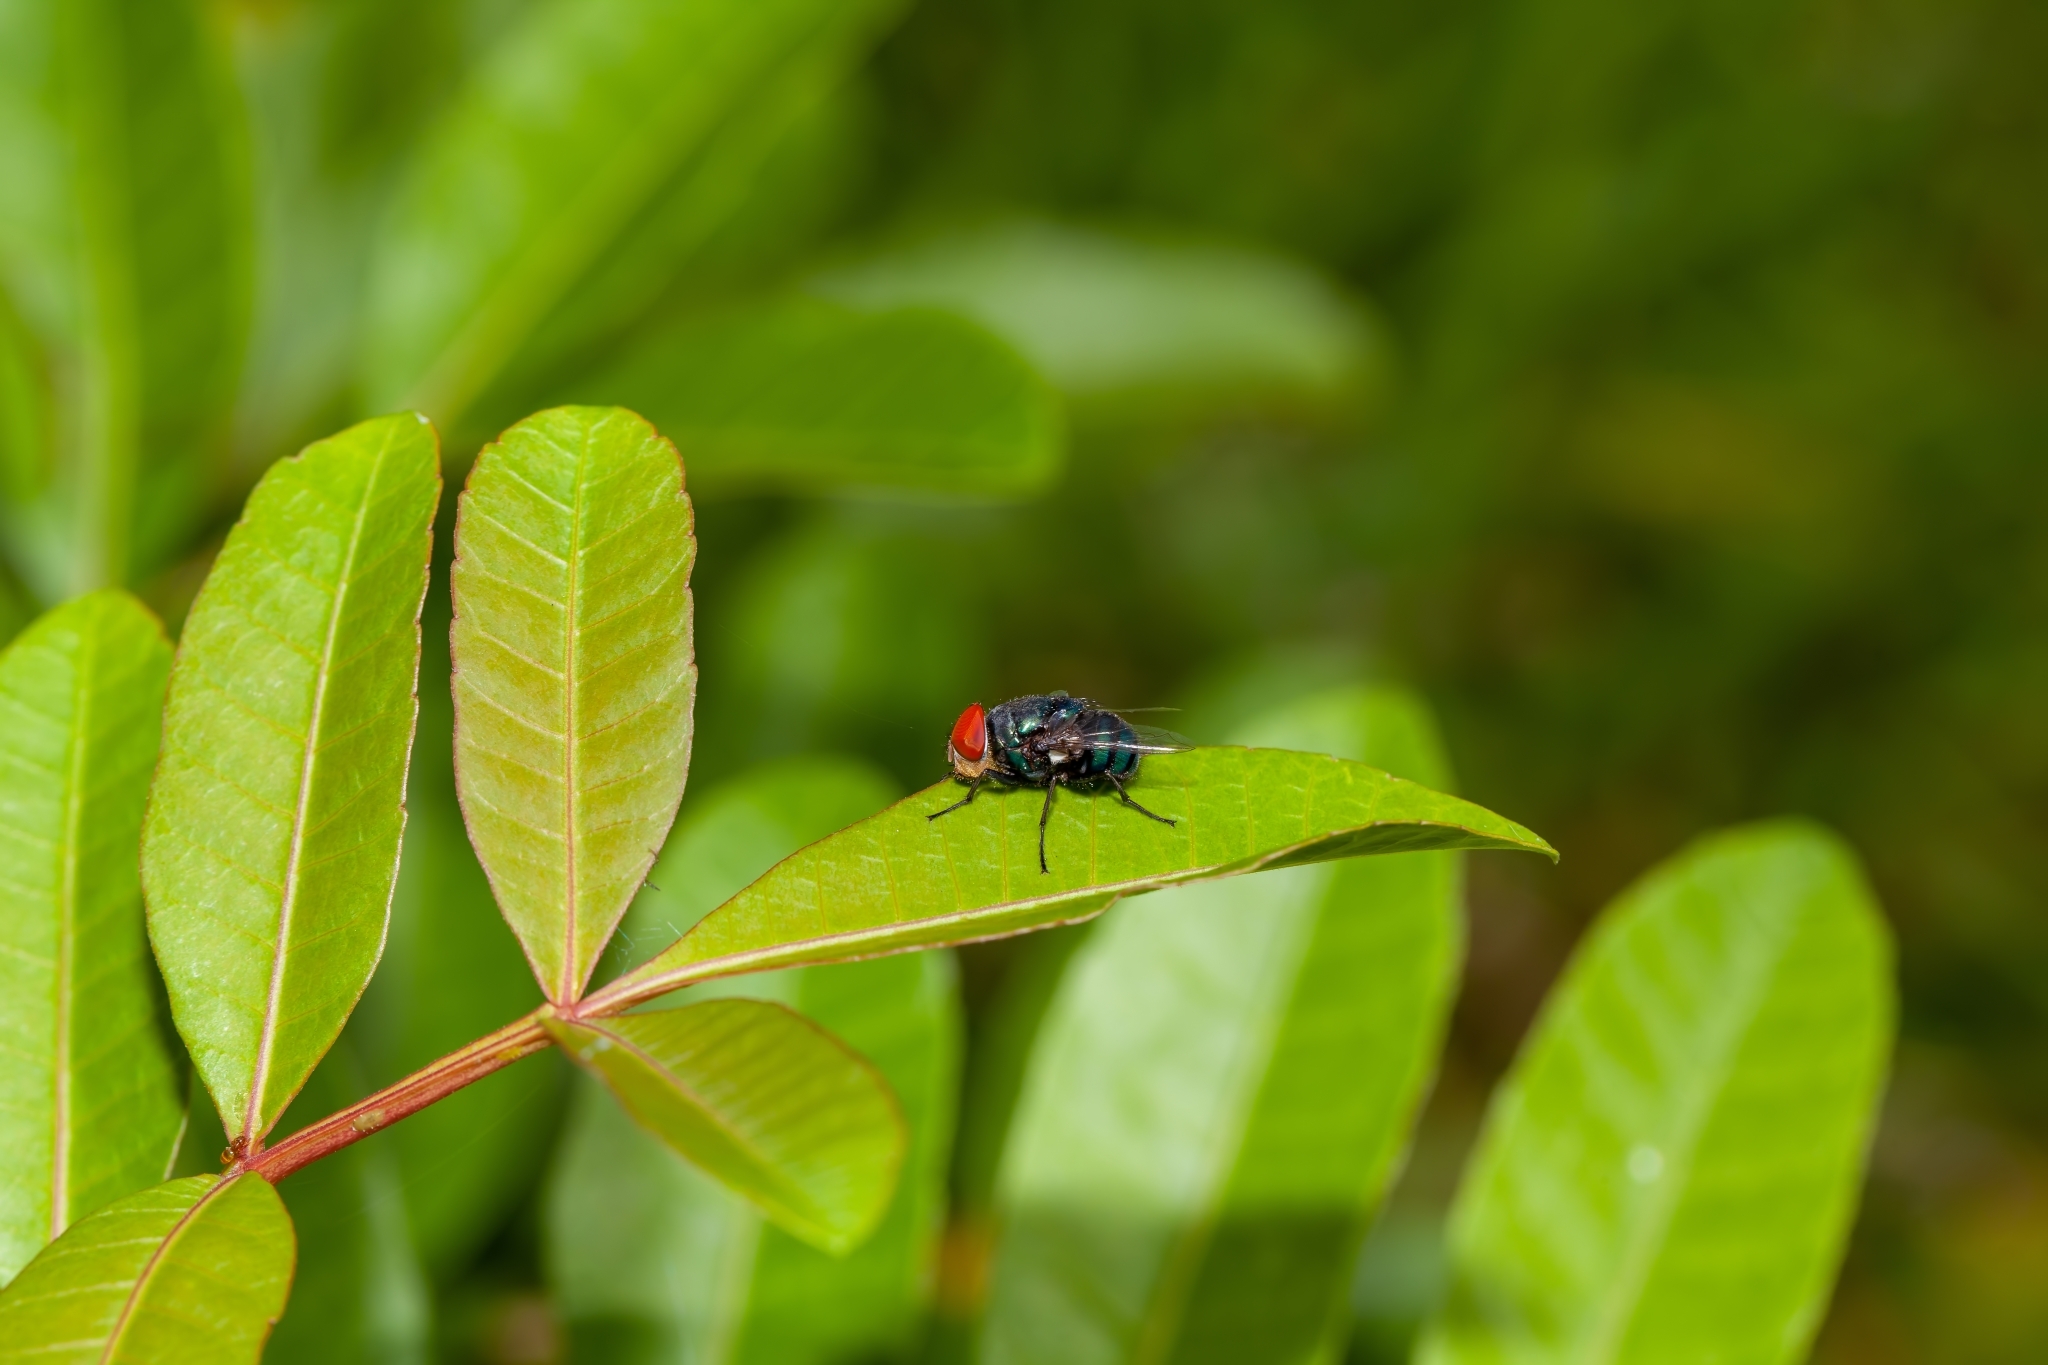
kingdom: Animalia
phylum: Arthropoda
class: Insecta
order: Diptera
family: Calliphoridae
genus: Chrysomya
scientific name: Chrysomya megacephala
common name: Blow fly
